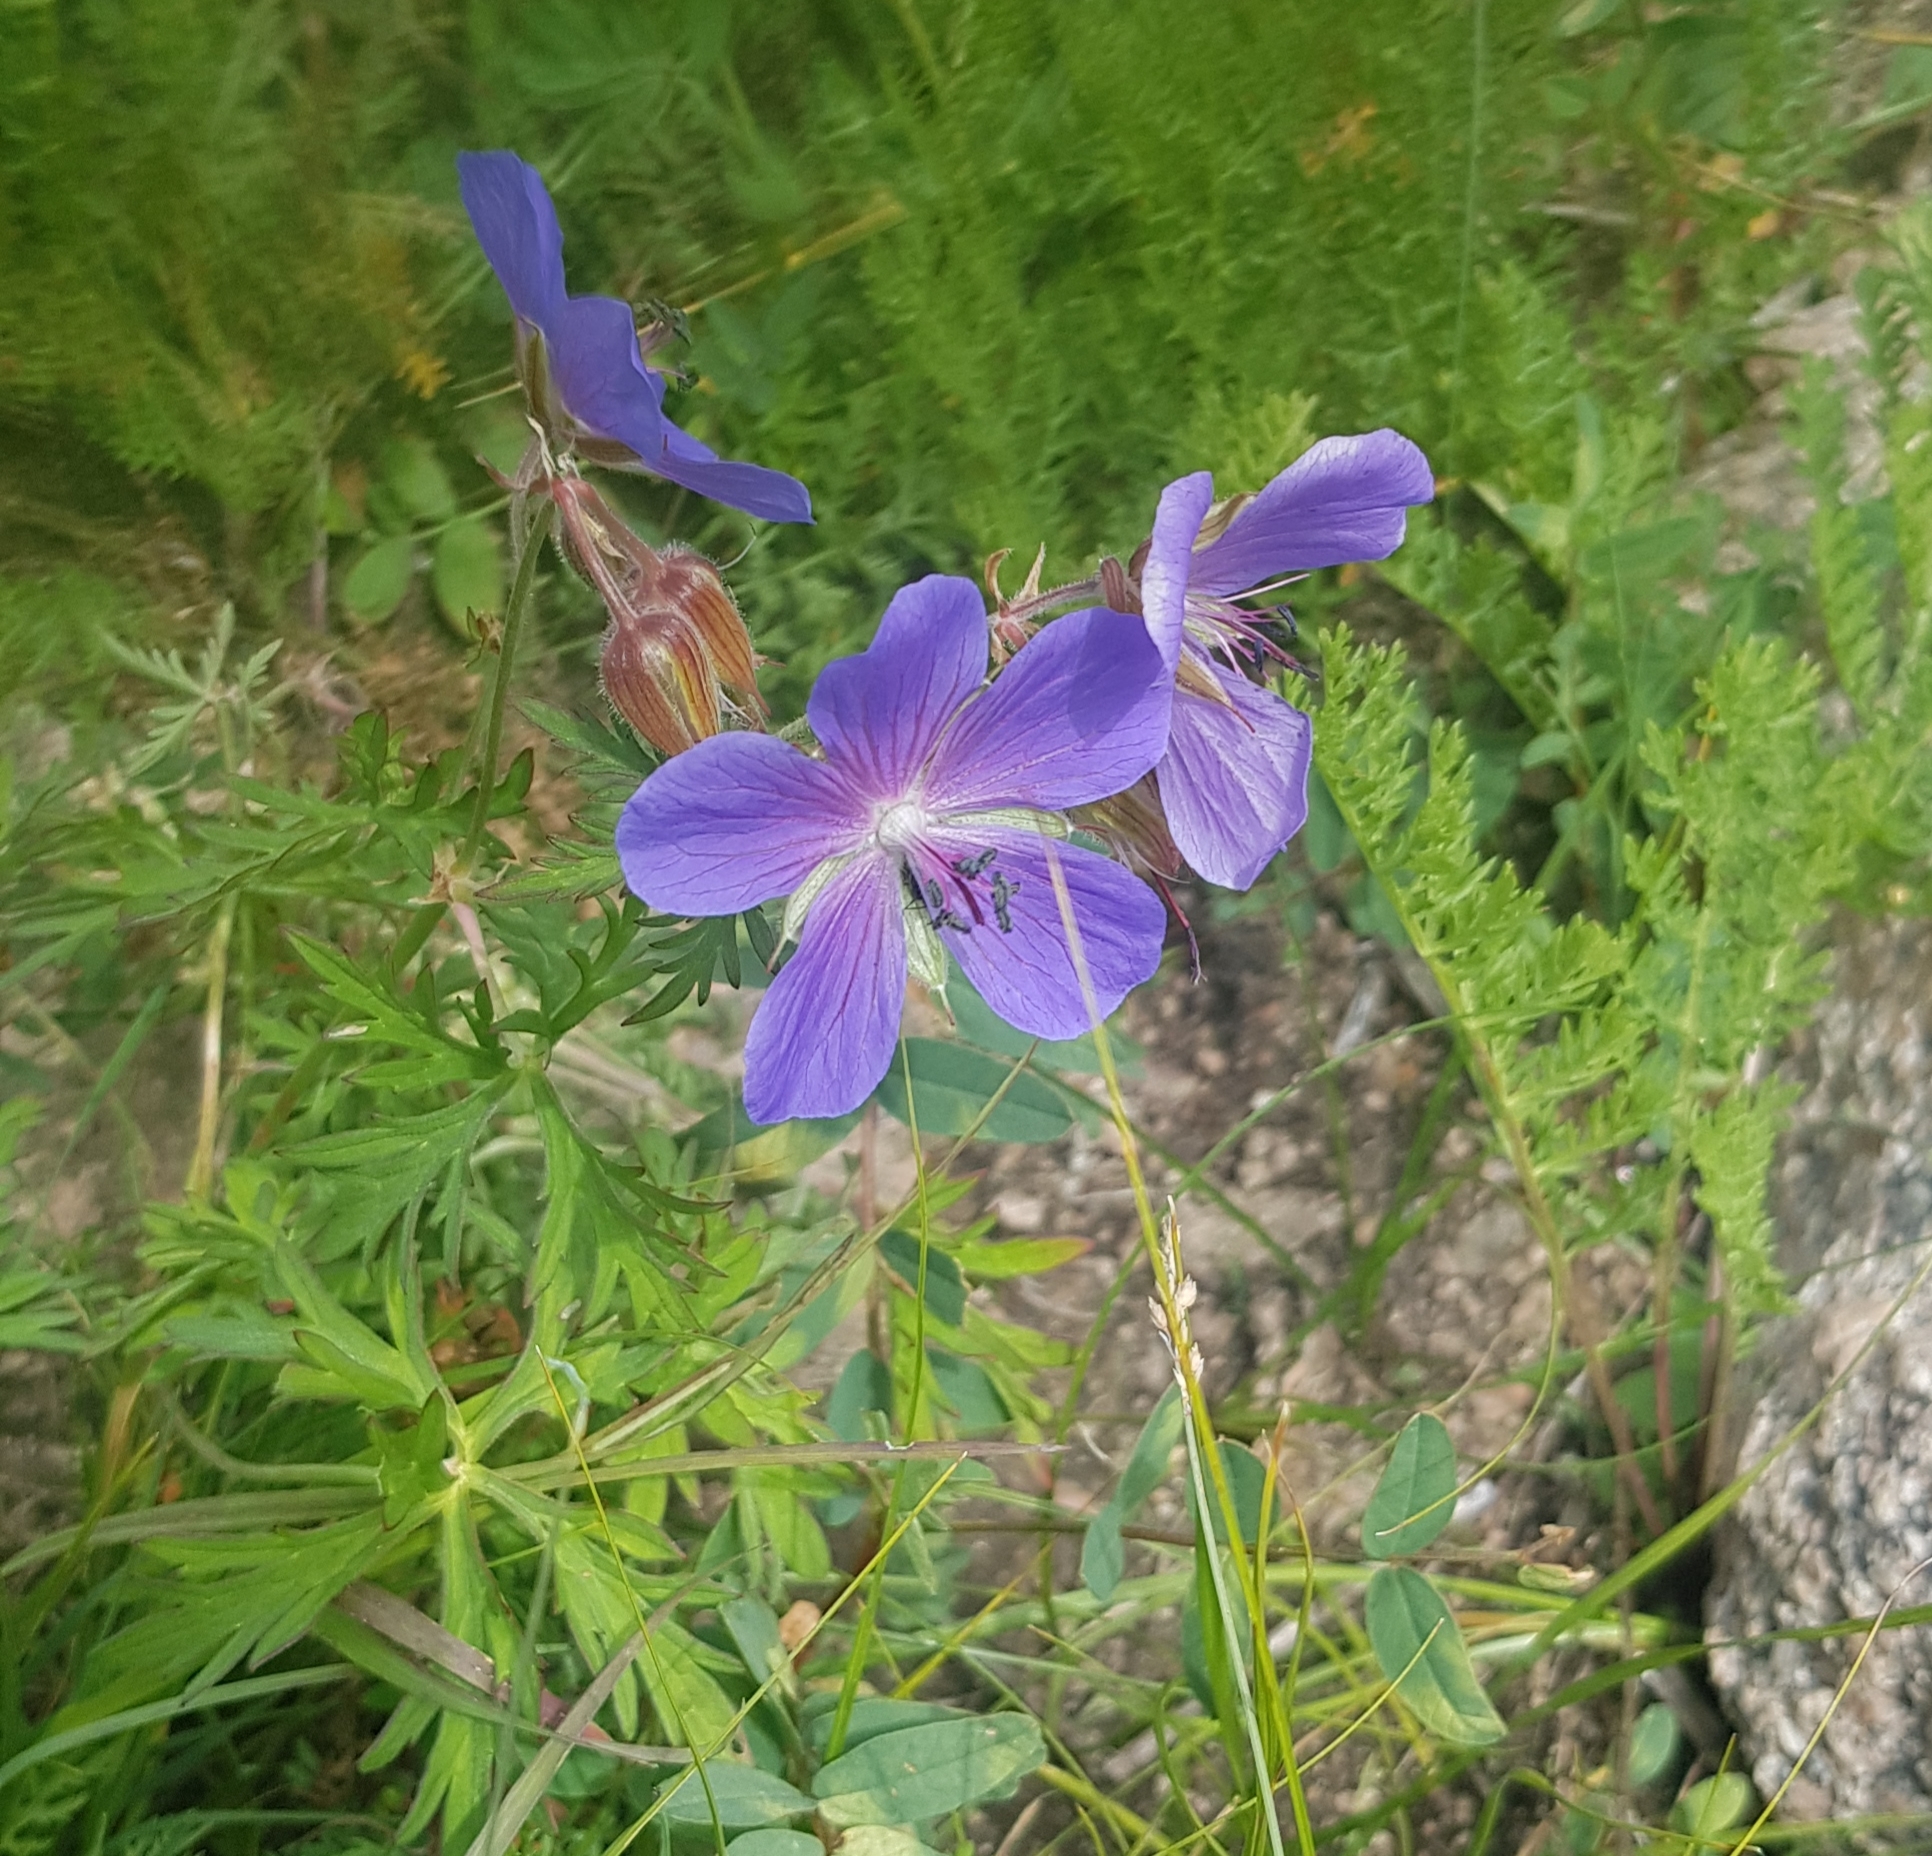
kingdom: Plantae
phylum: Tracheophyta
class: Magnoliopsida
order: Geraniales
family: Geraniaceae
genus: Geranium
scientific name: Geranium pratense
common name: Meadow crane's-bill
